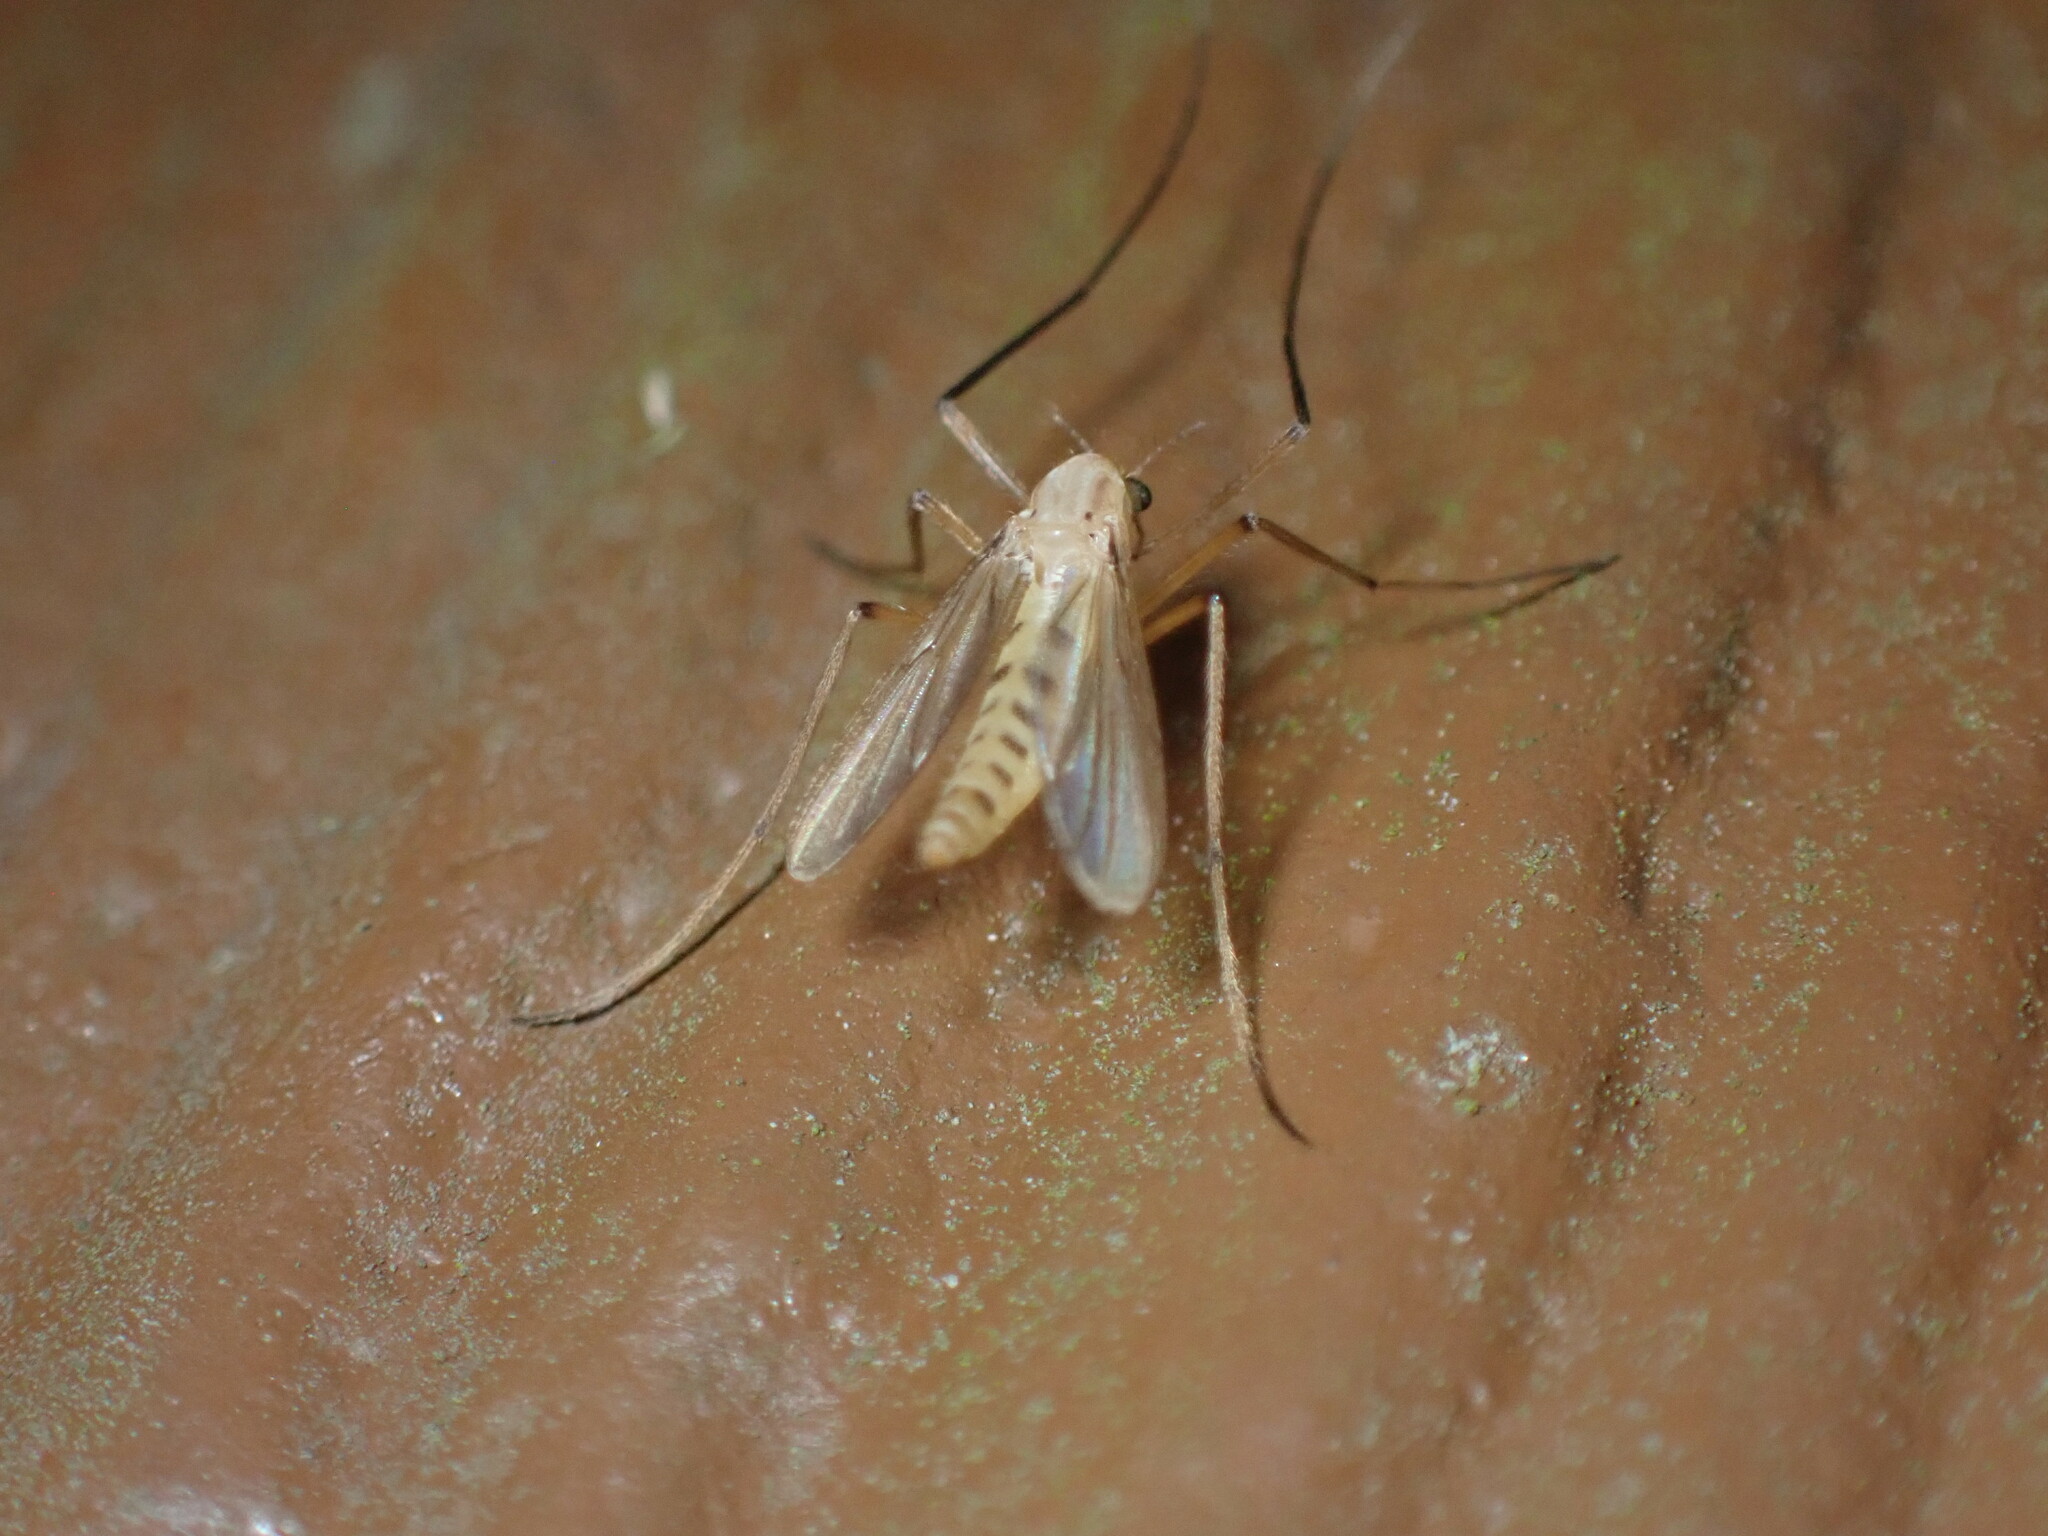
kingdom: Animalia
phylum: Arthropoda
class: Insecta
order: Diptera
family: Chironomidae
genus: Xylotopus
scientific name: Xylotopus par
